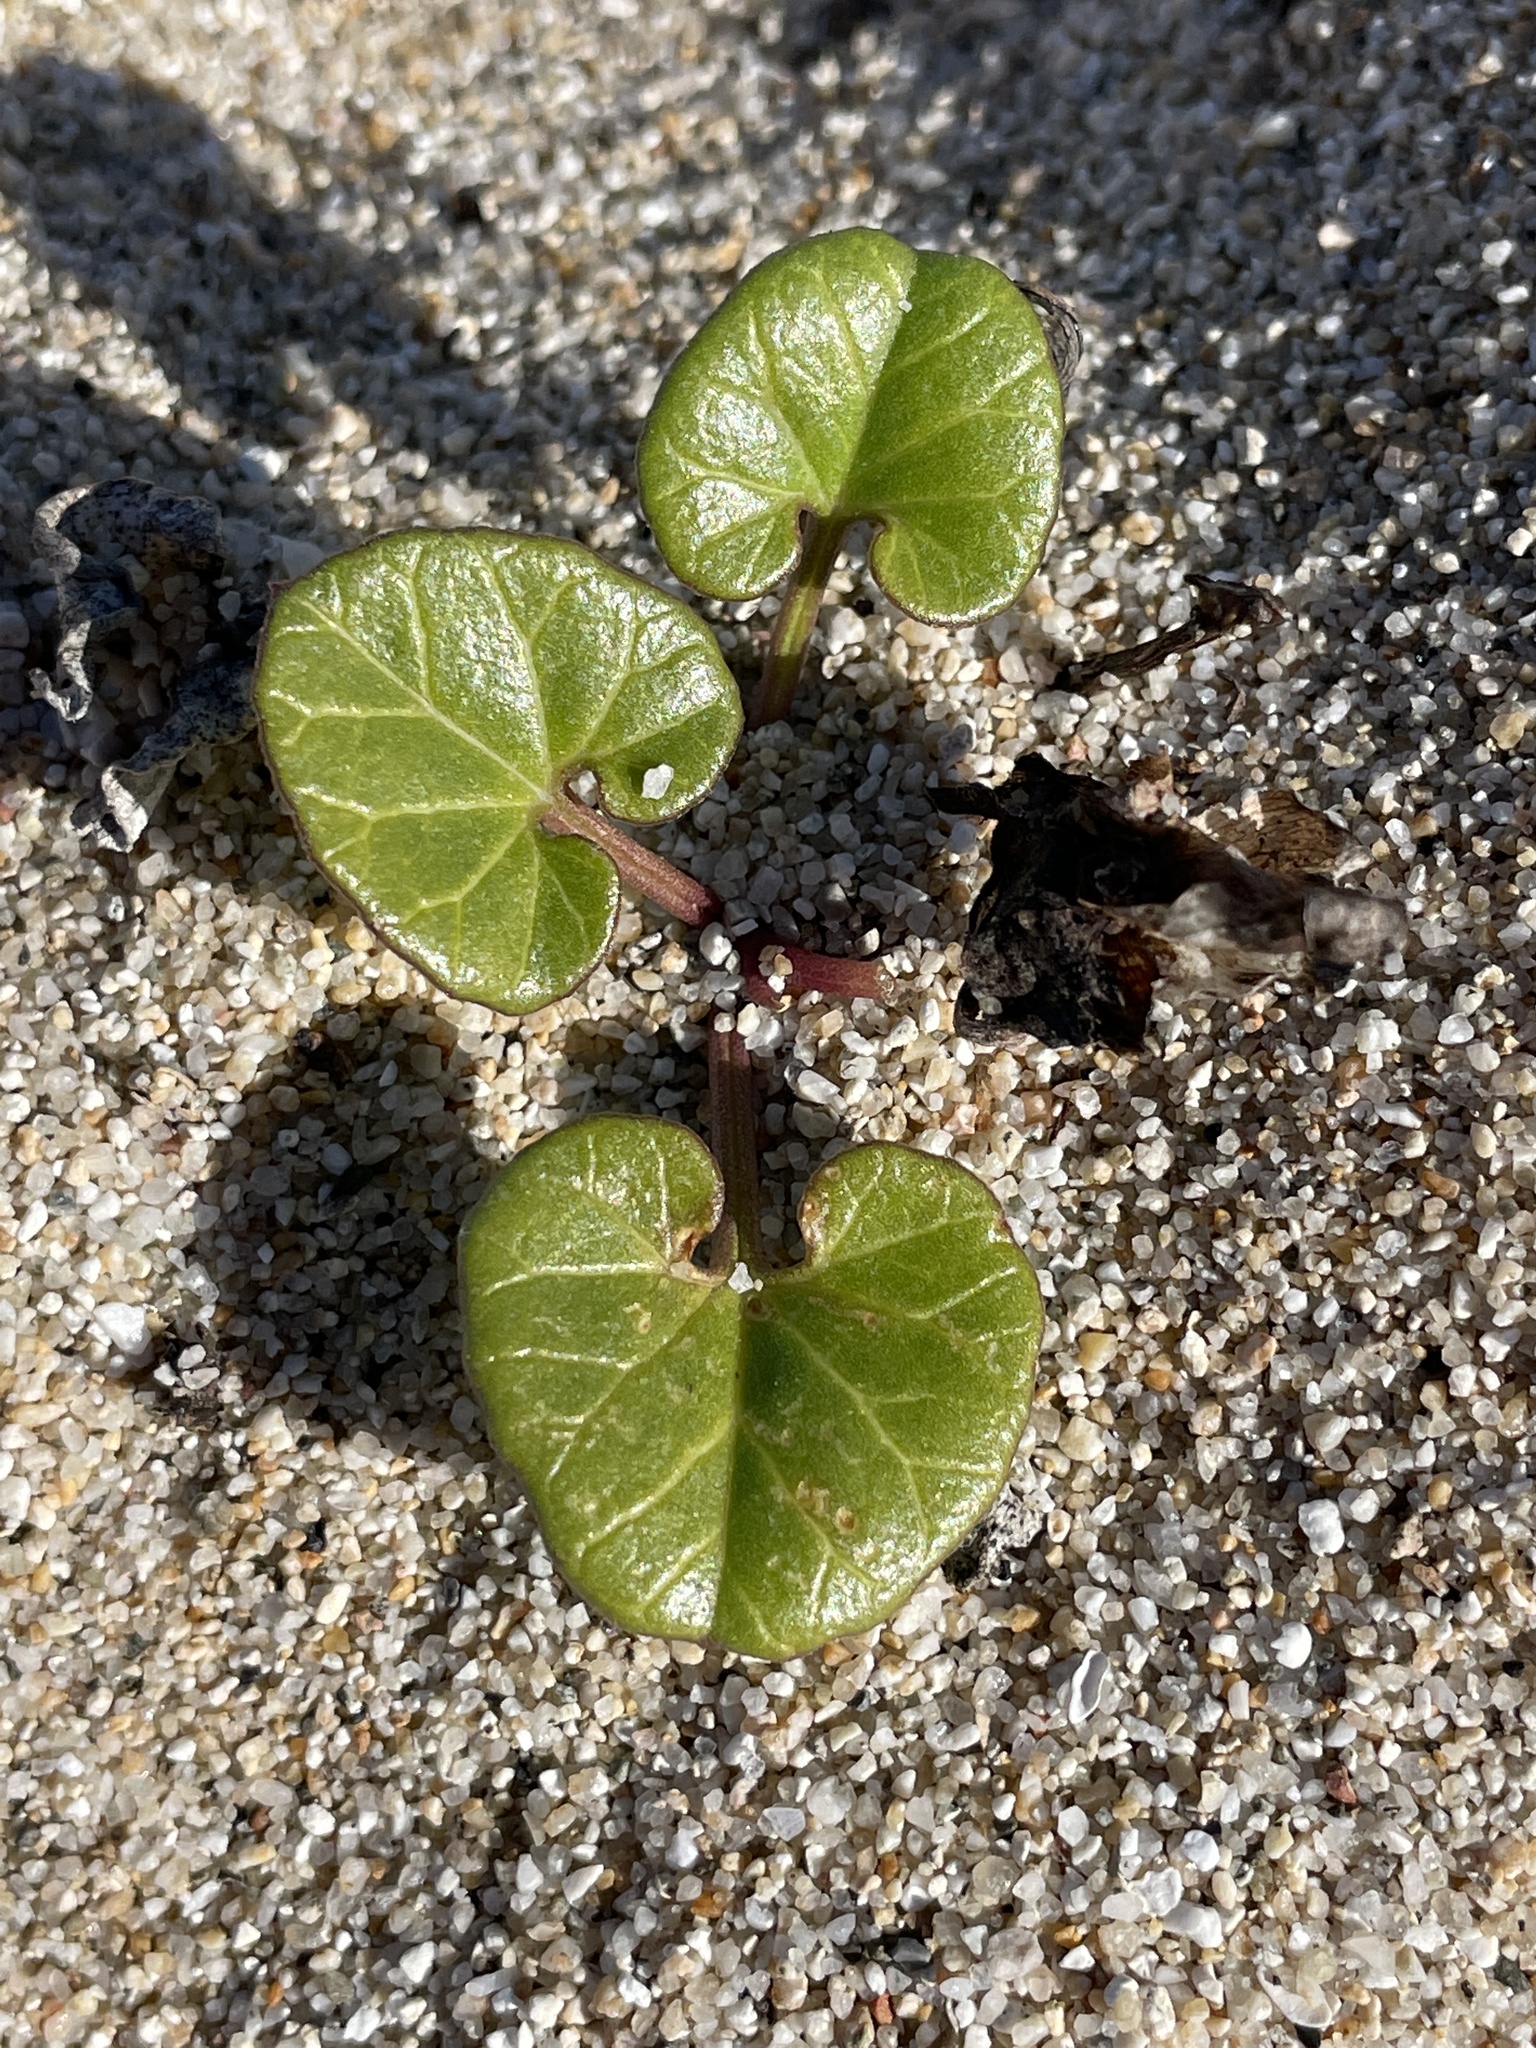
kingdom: Plantae
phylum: Tracheophyta
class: Magnoliopsida
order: Solanales
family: Convolvulaceae
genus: Calystegia
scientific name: Calystegia soldanella
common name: Sea bindweed
